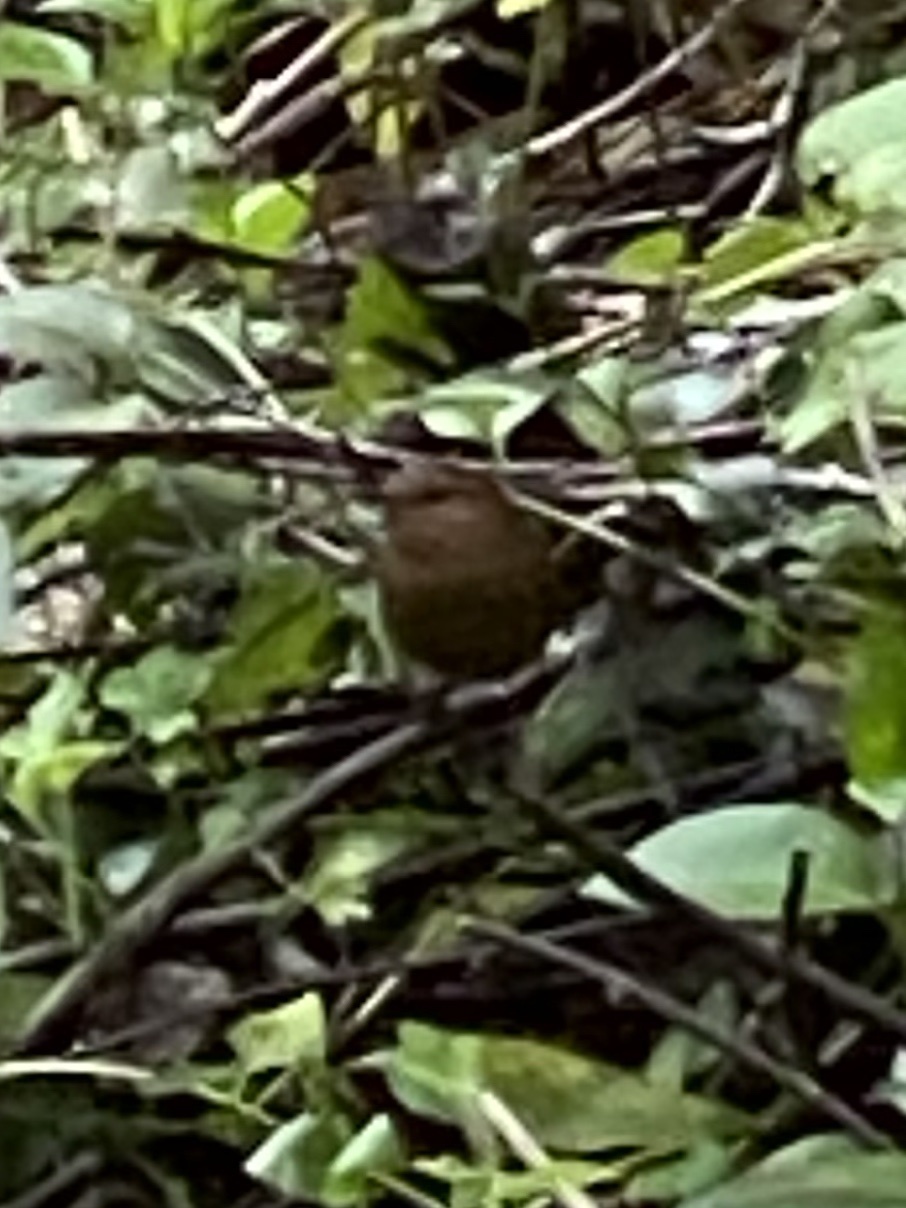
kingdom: Animalia
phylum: Chordata
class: Aves
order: Passeriformes
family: Troglodytidae
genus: Troglodytes
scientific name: Troglodytes pacificus
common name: Pacific wren
